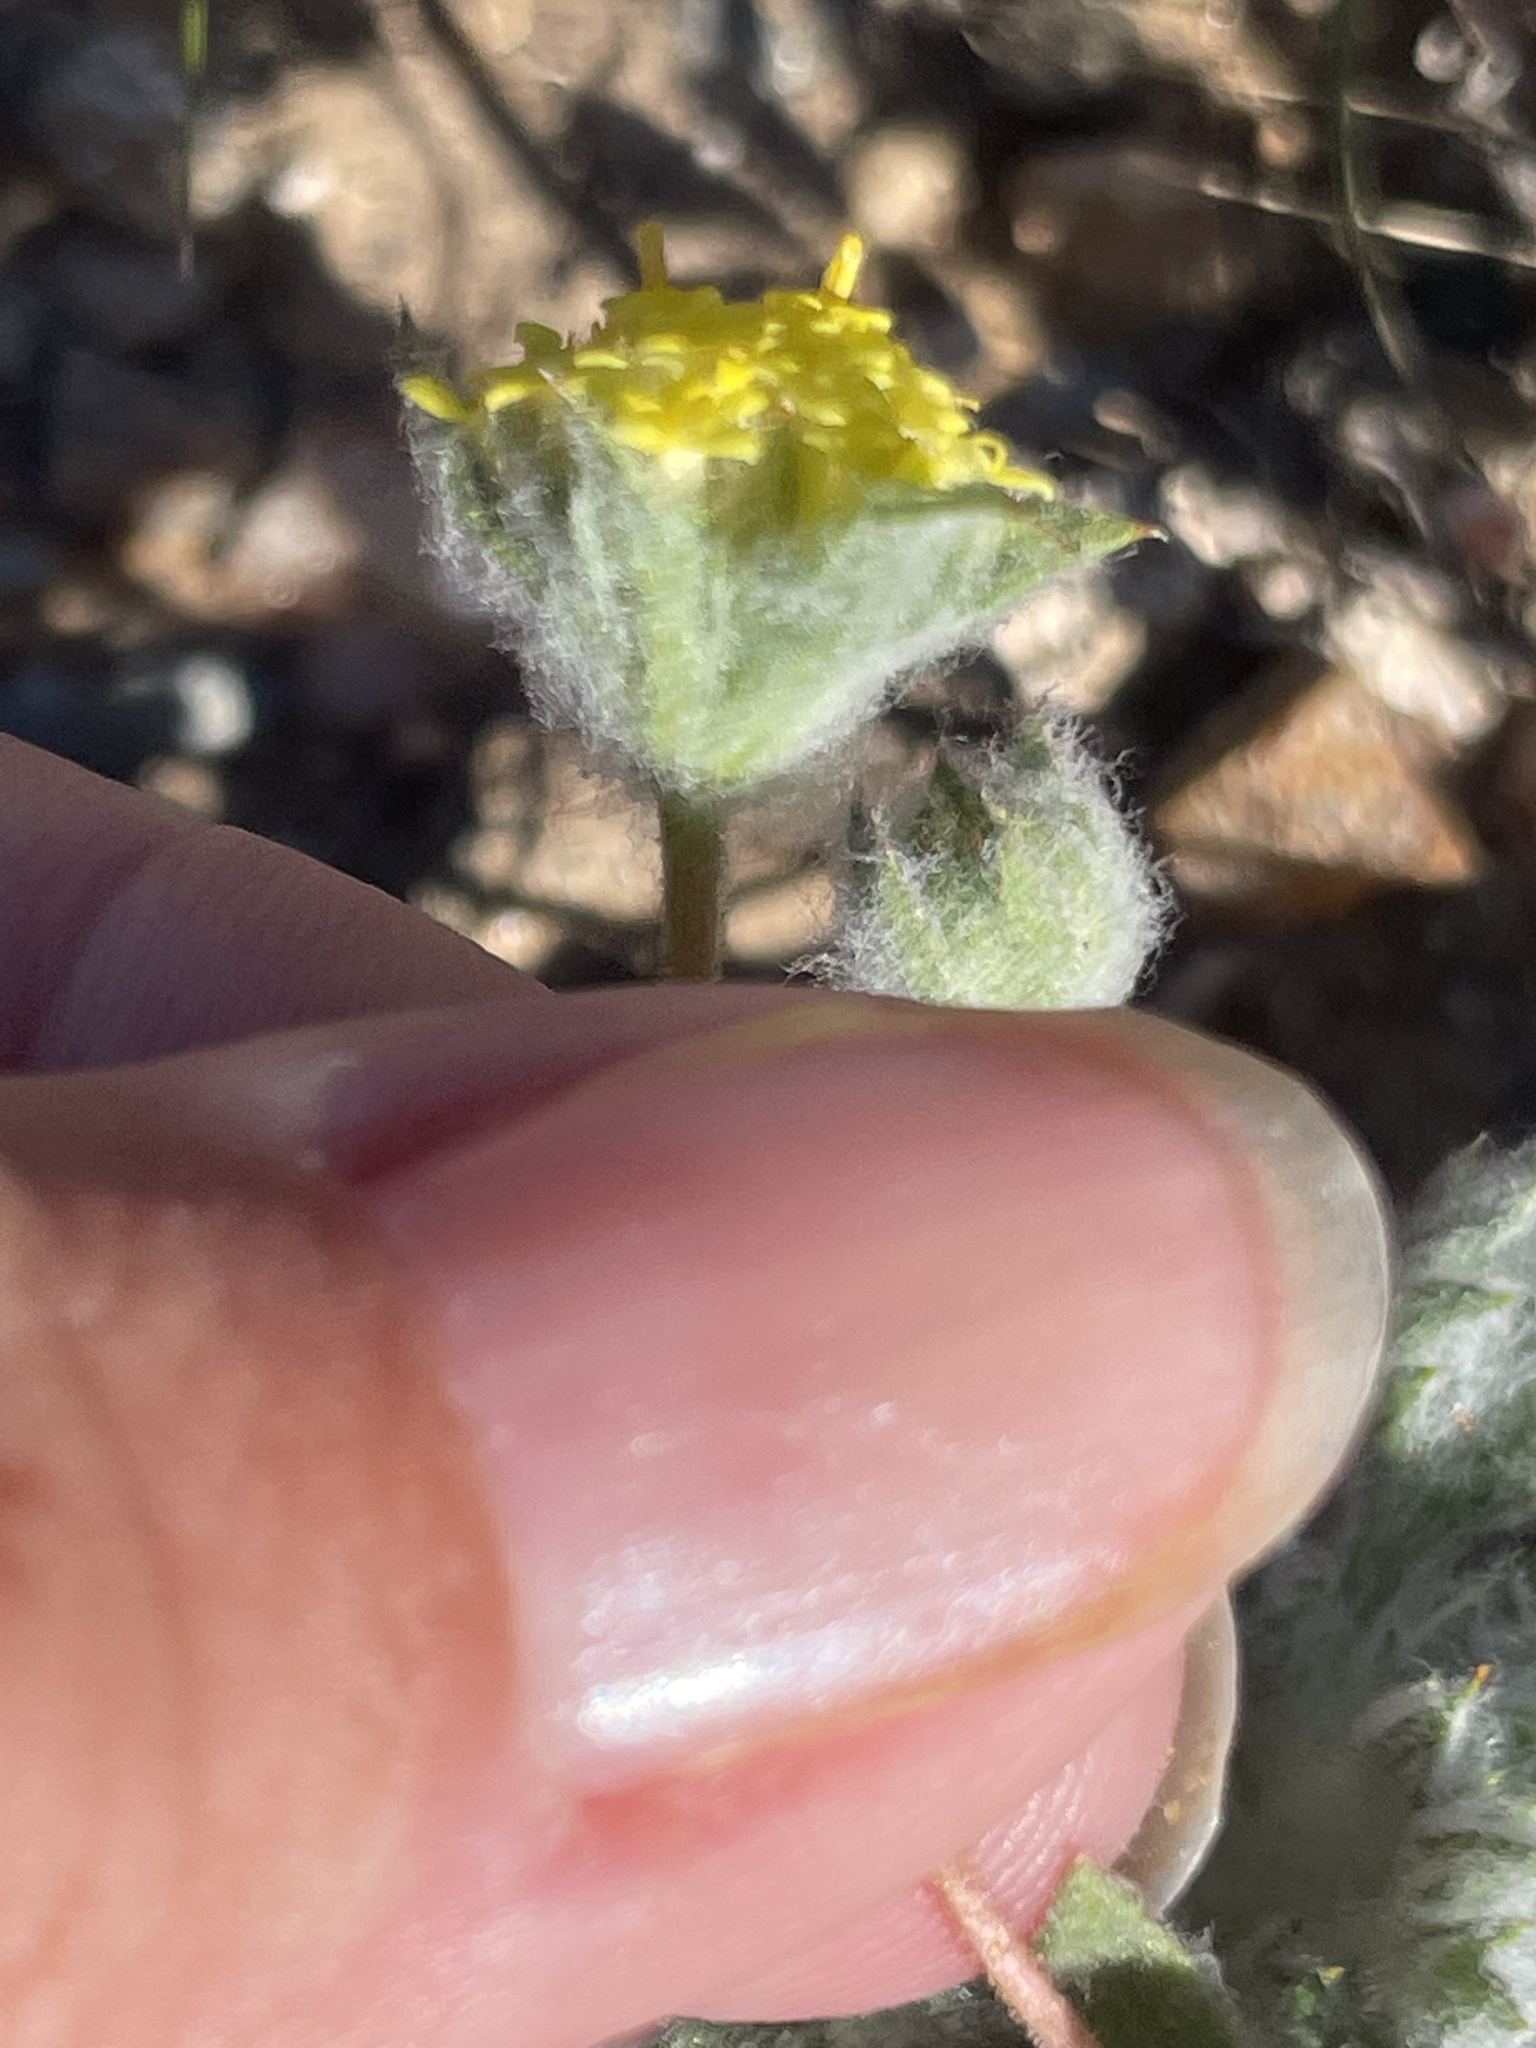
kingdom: Plantae
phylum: Tracheophyta
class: Magnoliopsida
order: Asterales
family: Asteraceae
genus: Trichoptilium
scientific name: Trichoptilium incisum
